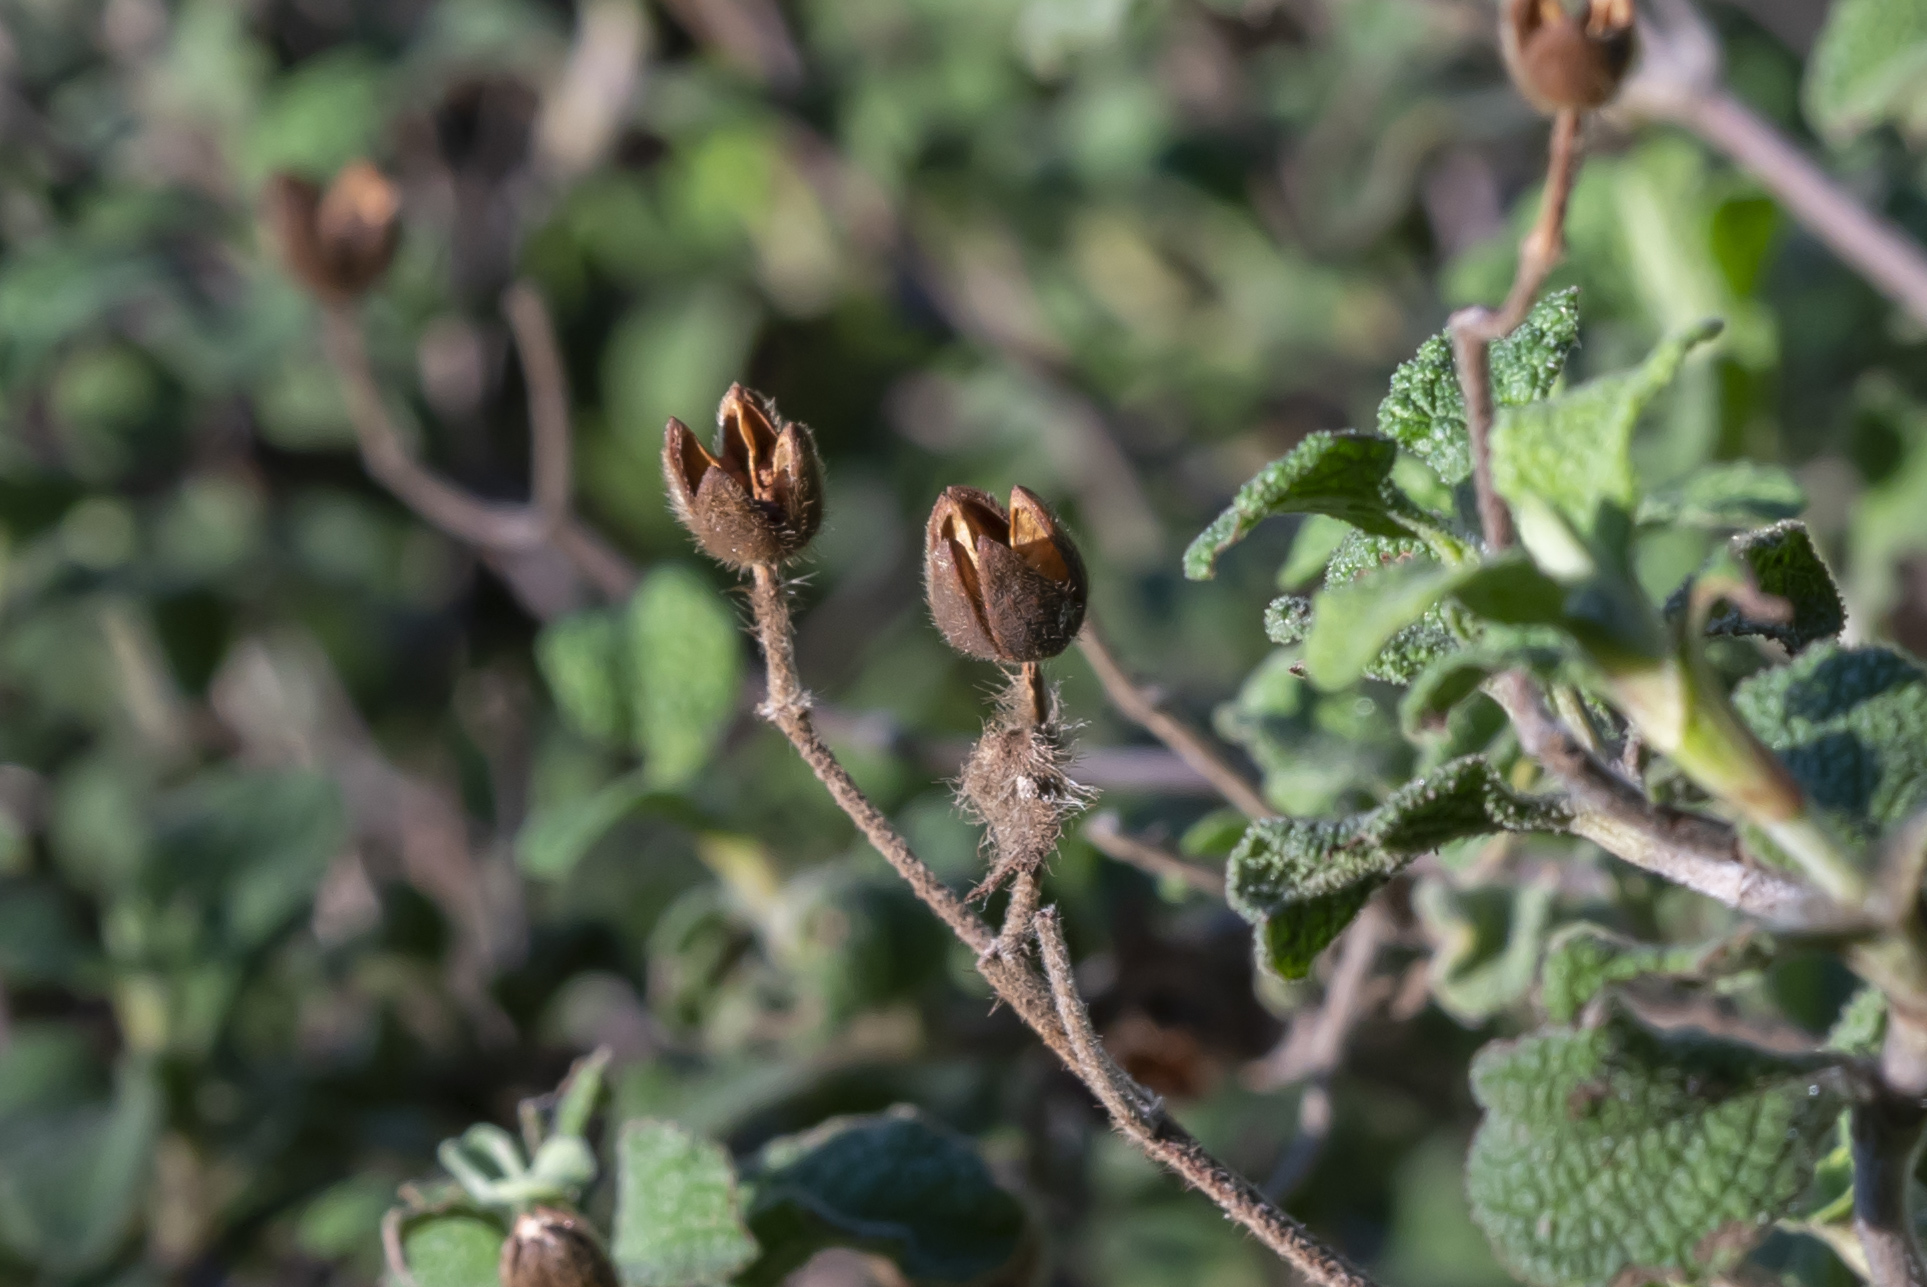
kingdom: Plantae
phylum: Tracheophyta
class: Magnoliopsida
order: Malvales
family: Cistaceae
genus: Cistus
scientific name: Cistus creticus
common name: Cretan rockrose
